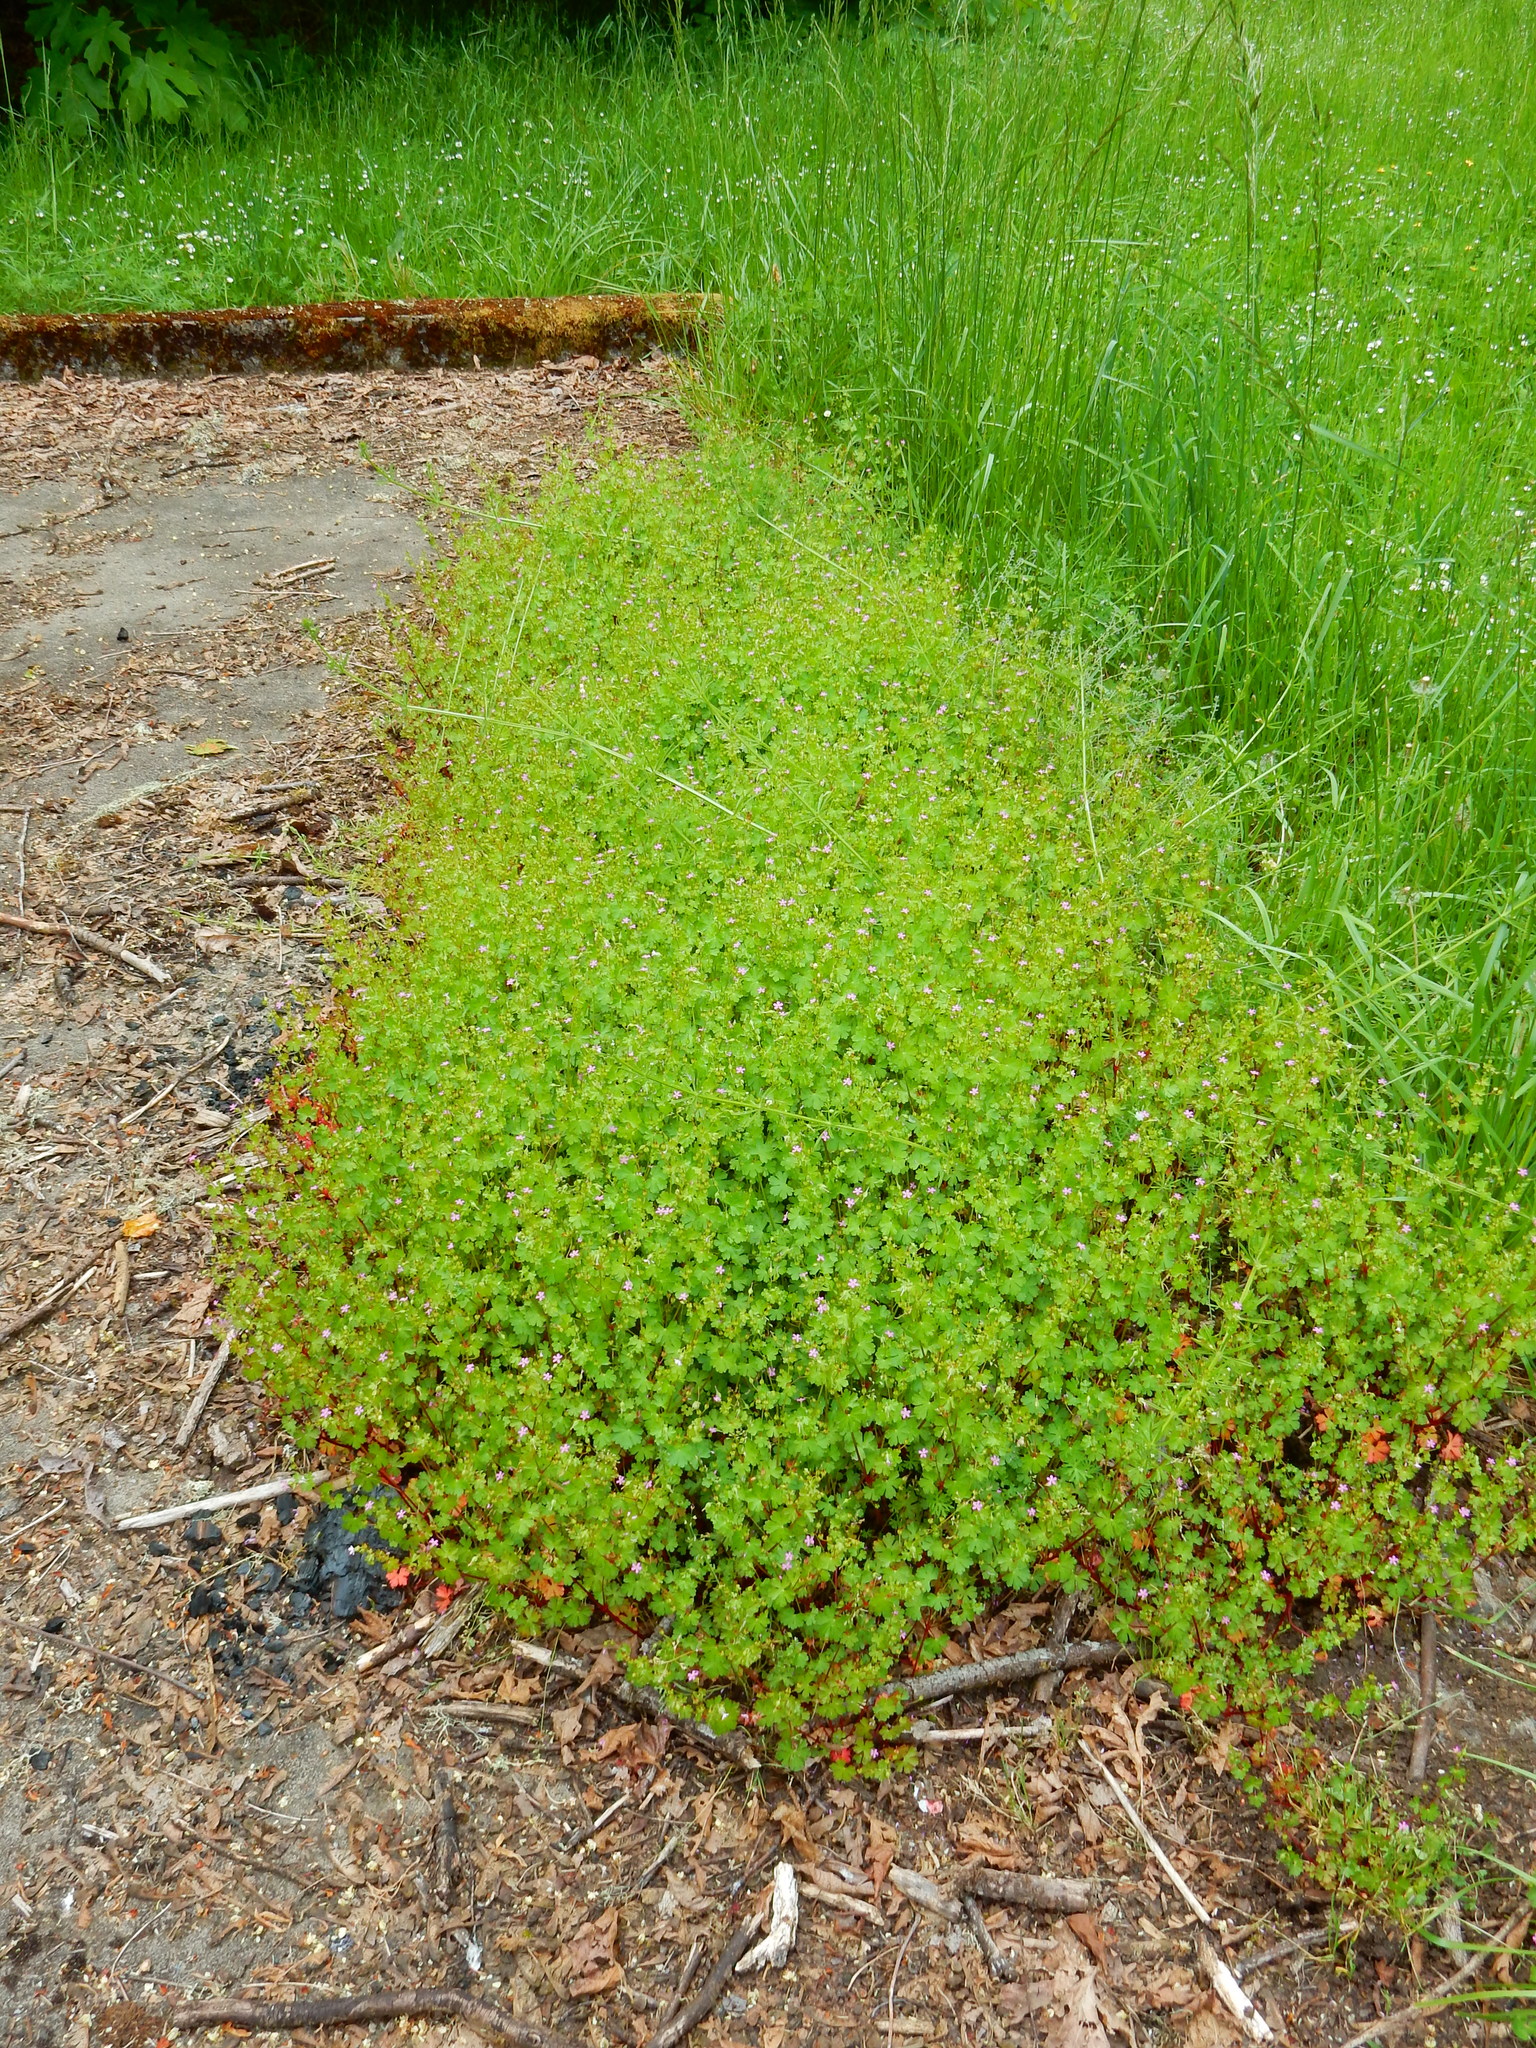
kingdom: Plantae
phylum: Tracheophyta
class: Magnoliopsida
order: Geraniales
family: Geraniaceae
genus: Geranium
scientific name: Geranium lucidum
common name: Shining crane's-bill
